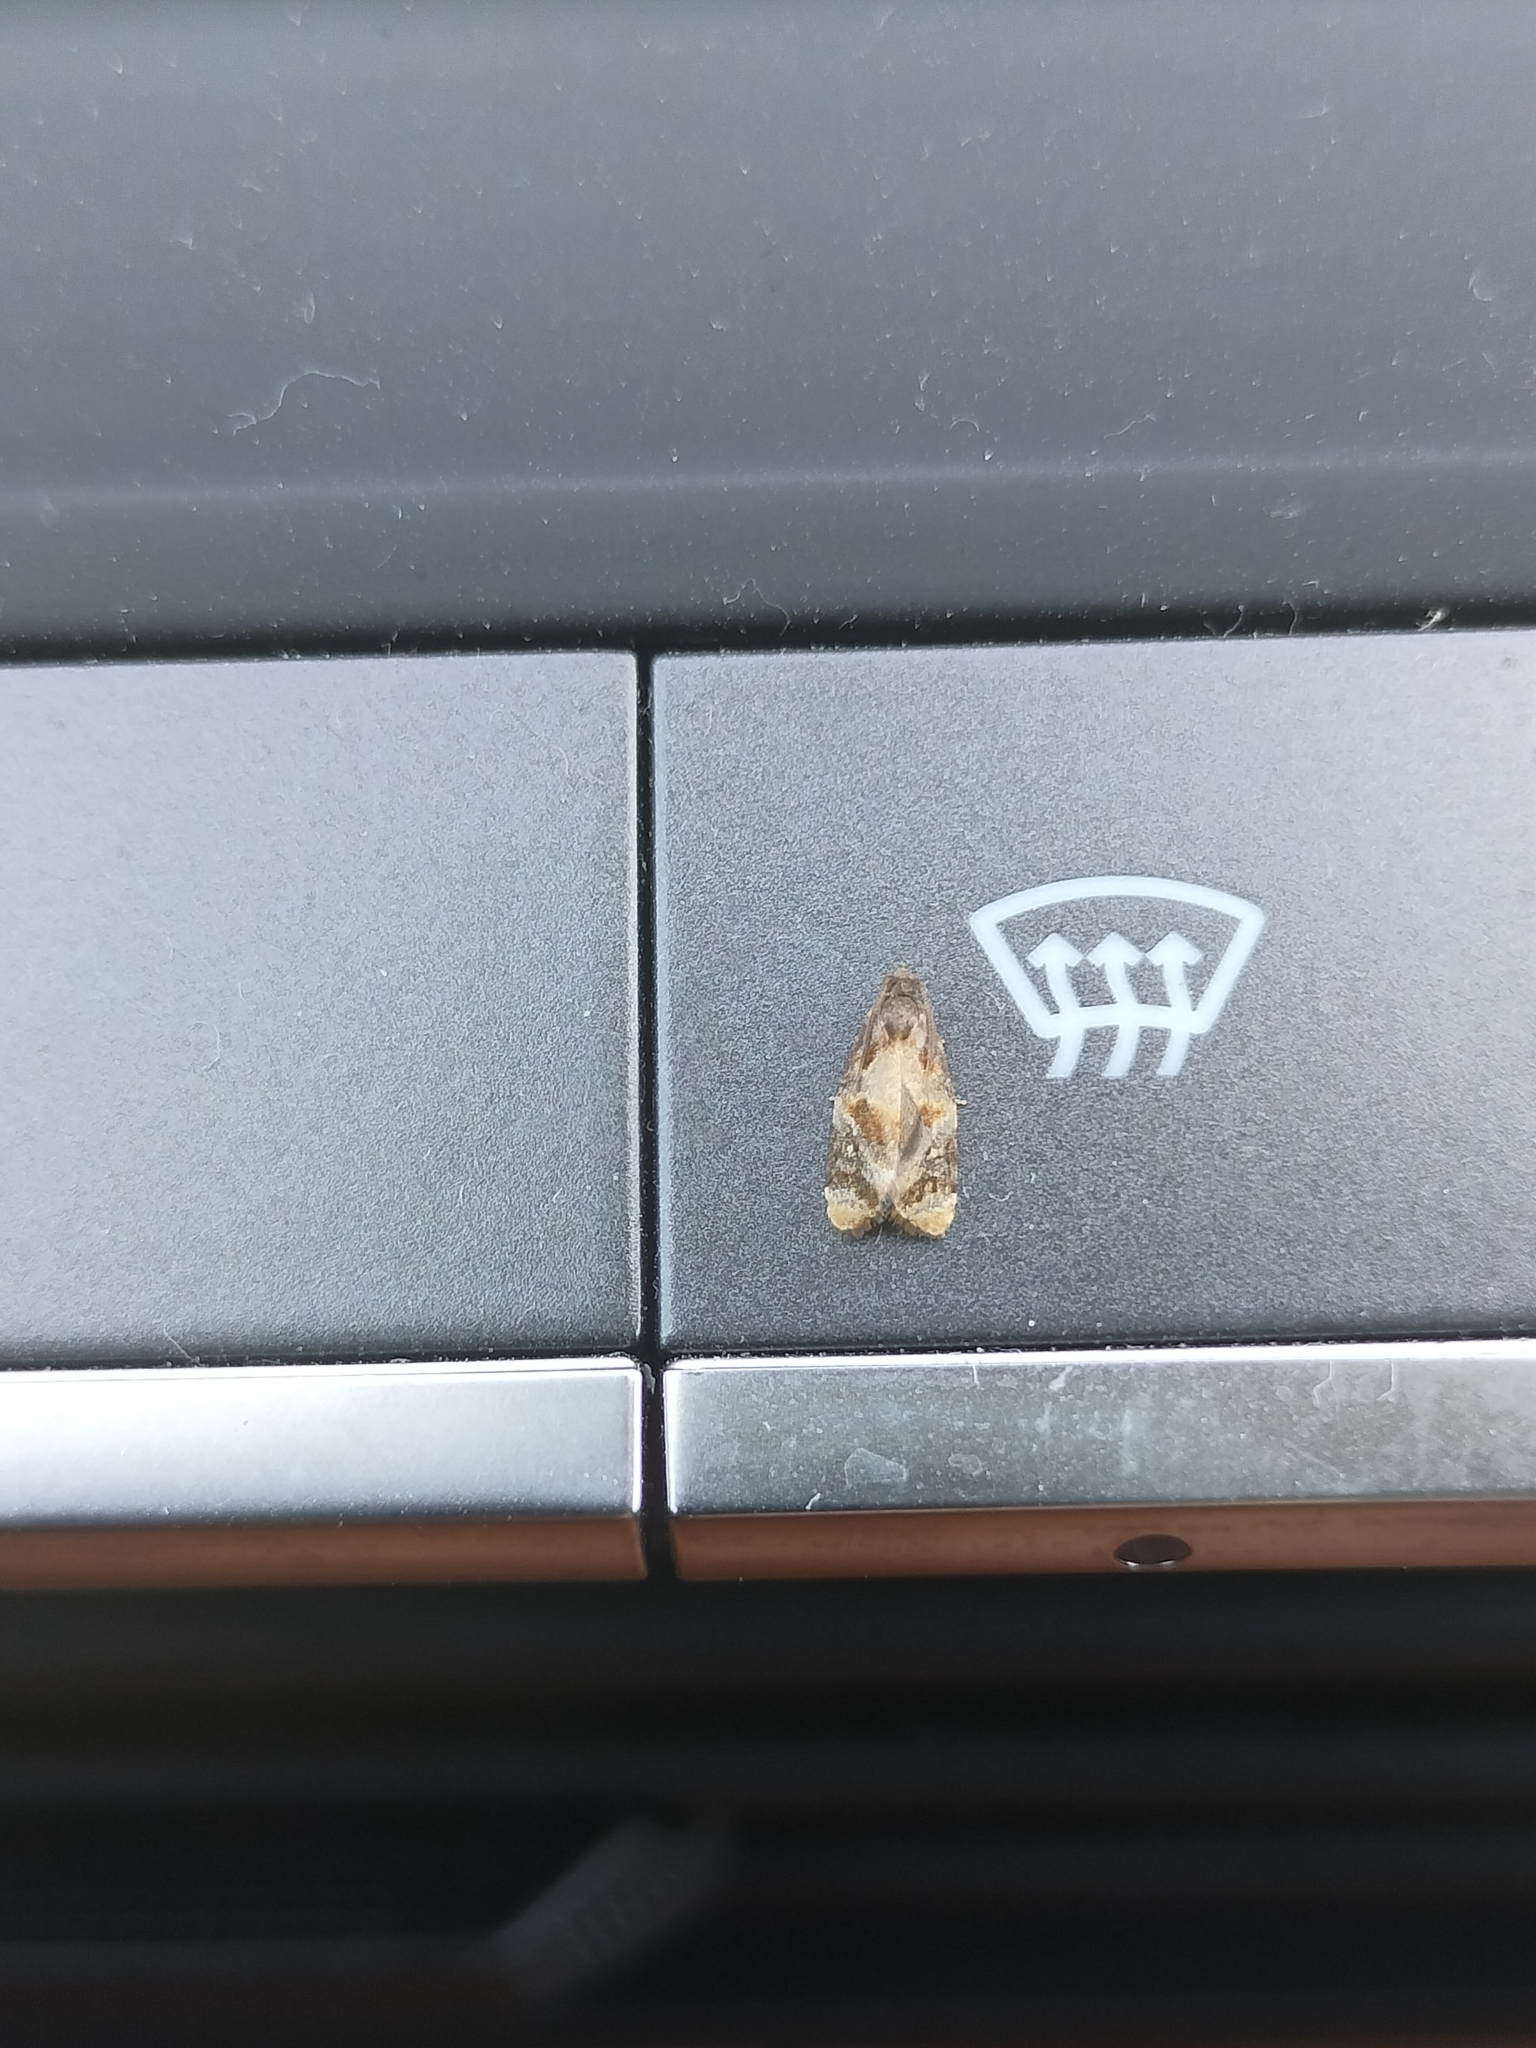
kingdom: Animalia
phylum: Arthropoda
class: Insecta
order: Lepidoptera
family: Tortricidae
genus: Ditula
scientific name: Ditula angustiorana
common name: Red-barred tortrix
